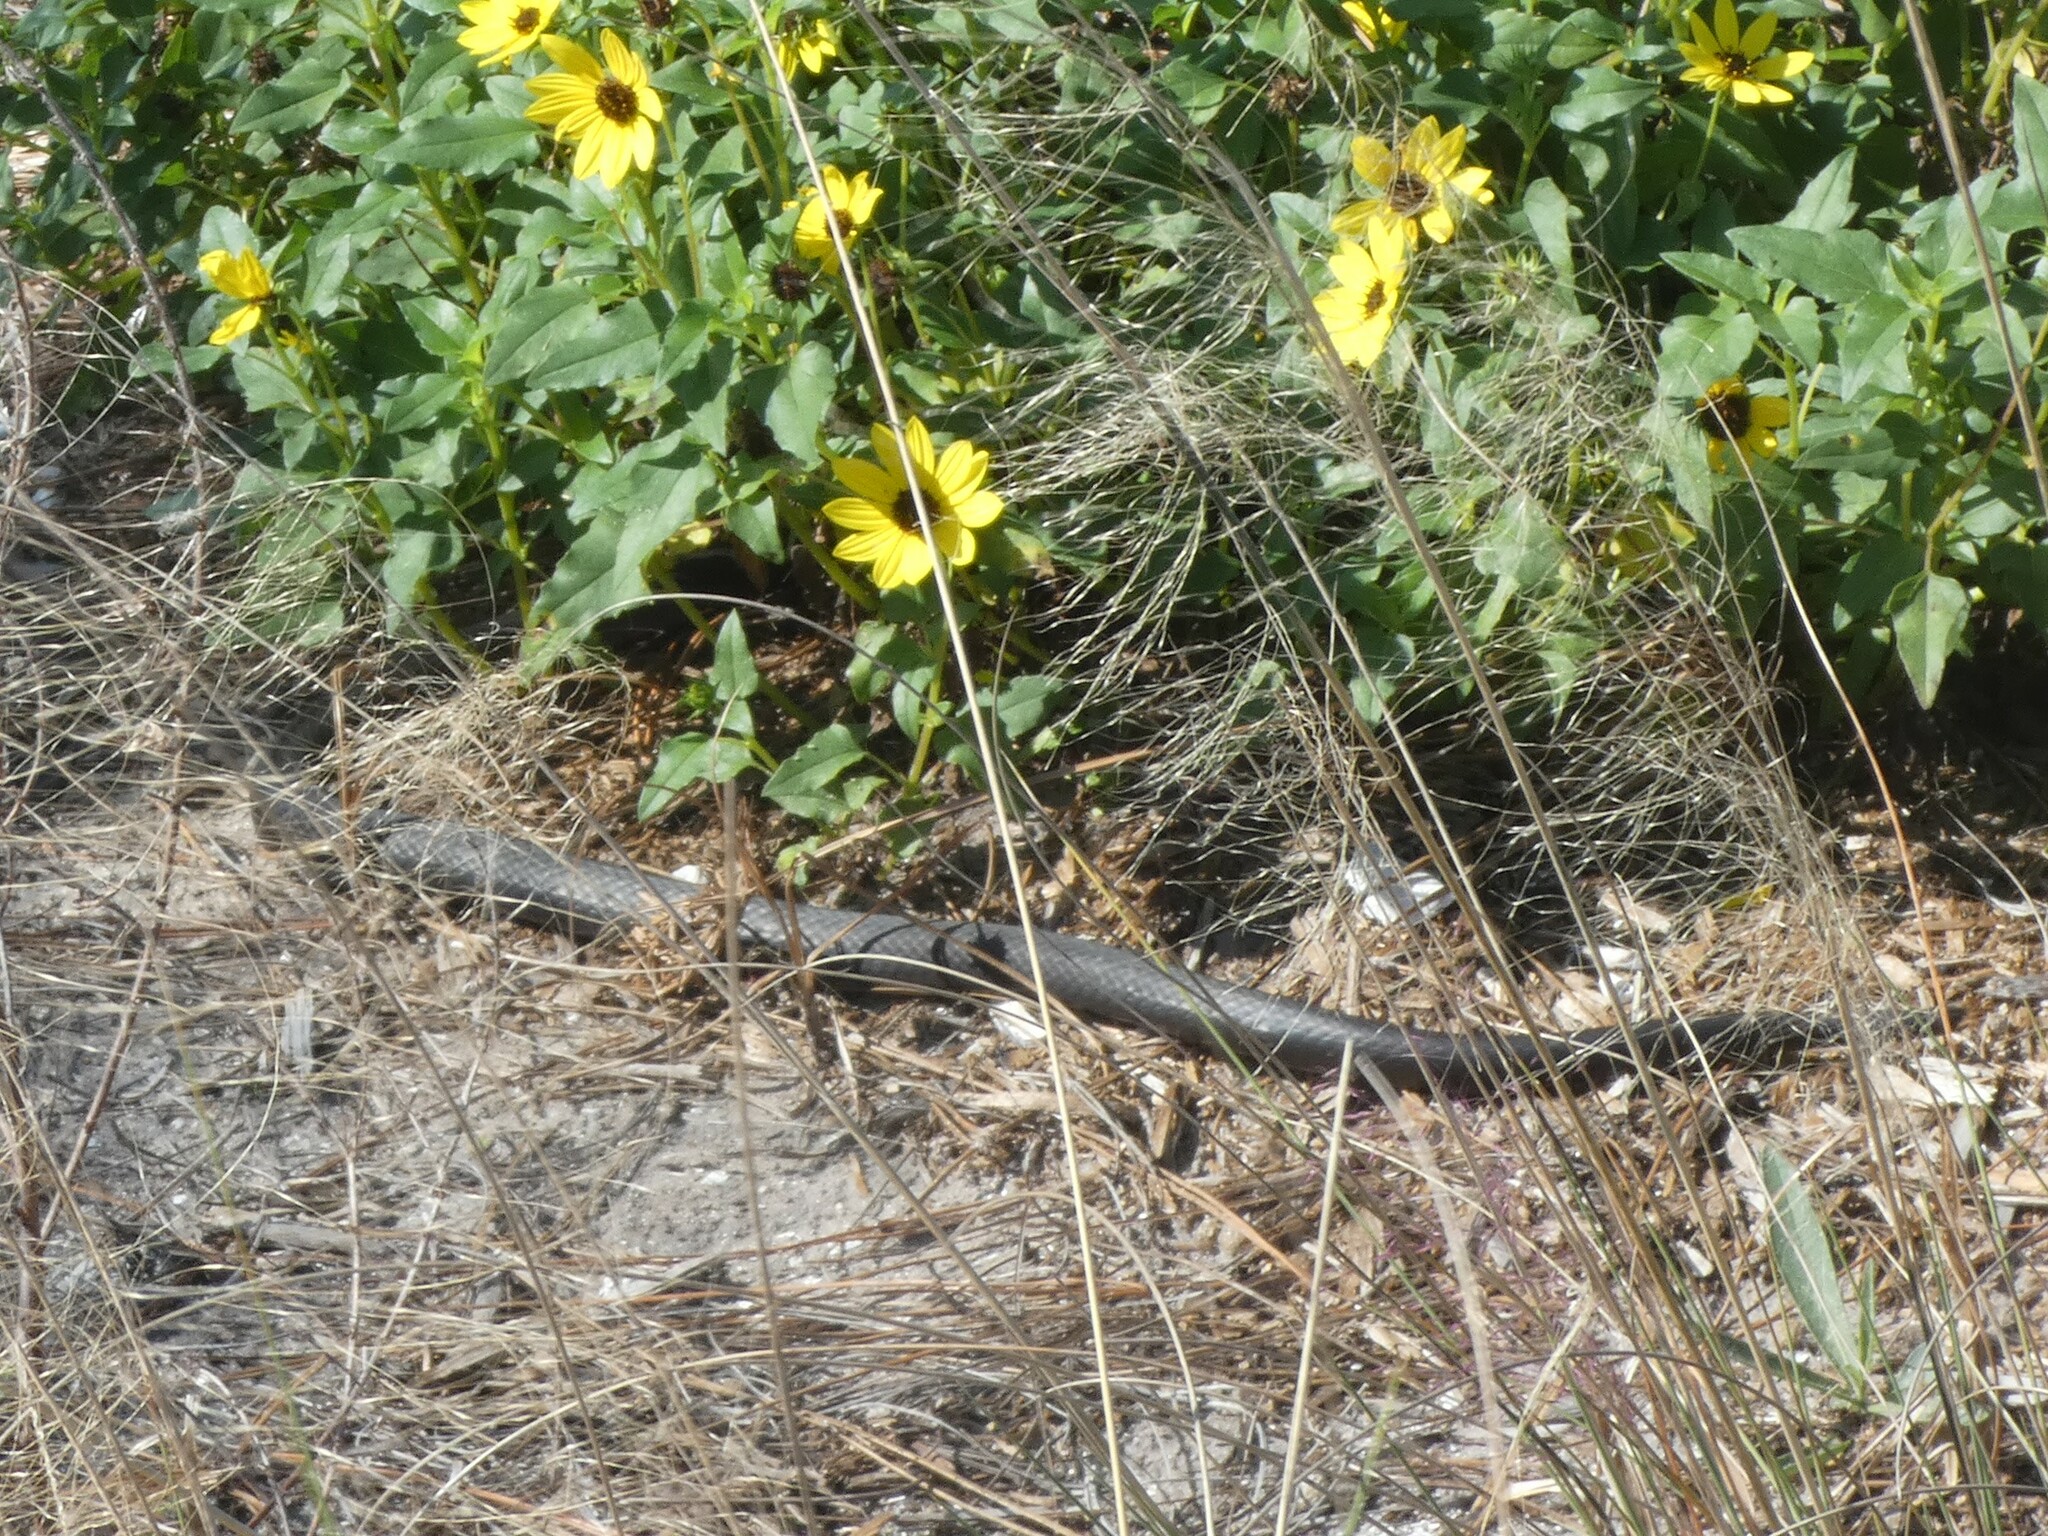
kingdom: Animalia
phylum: Chordata
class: Squamata
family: Colubridae
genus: Coluber
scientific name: Coluber constrictor
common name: Eastern racer
